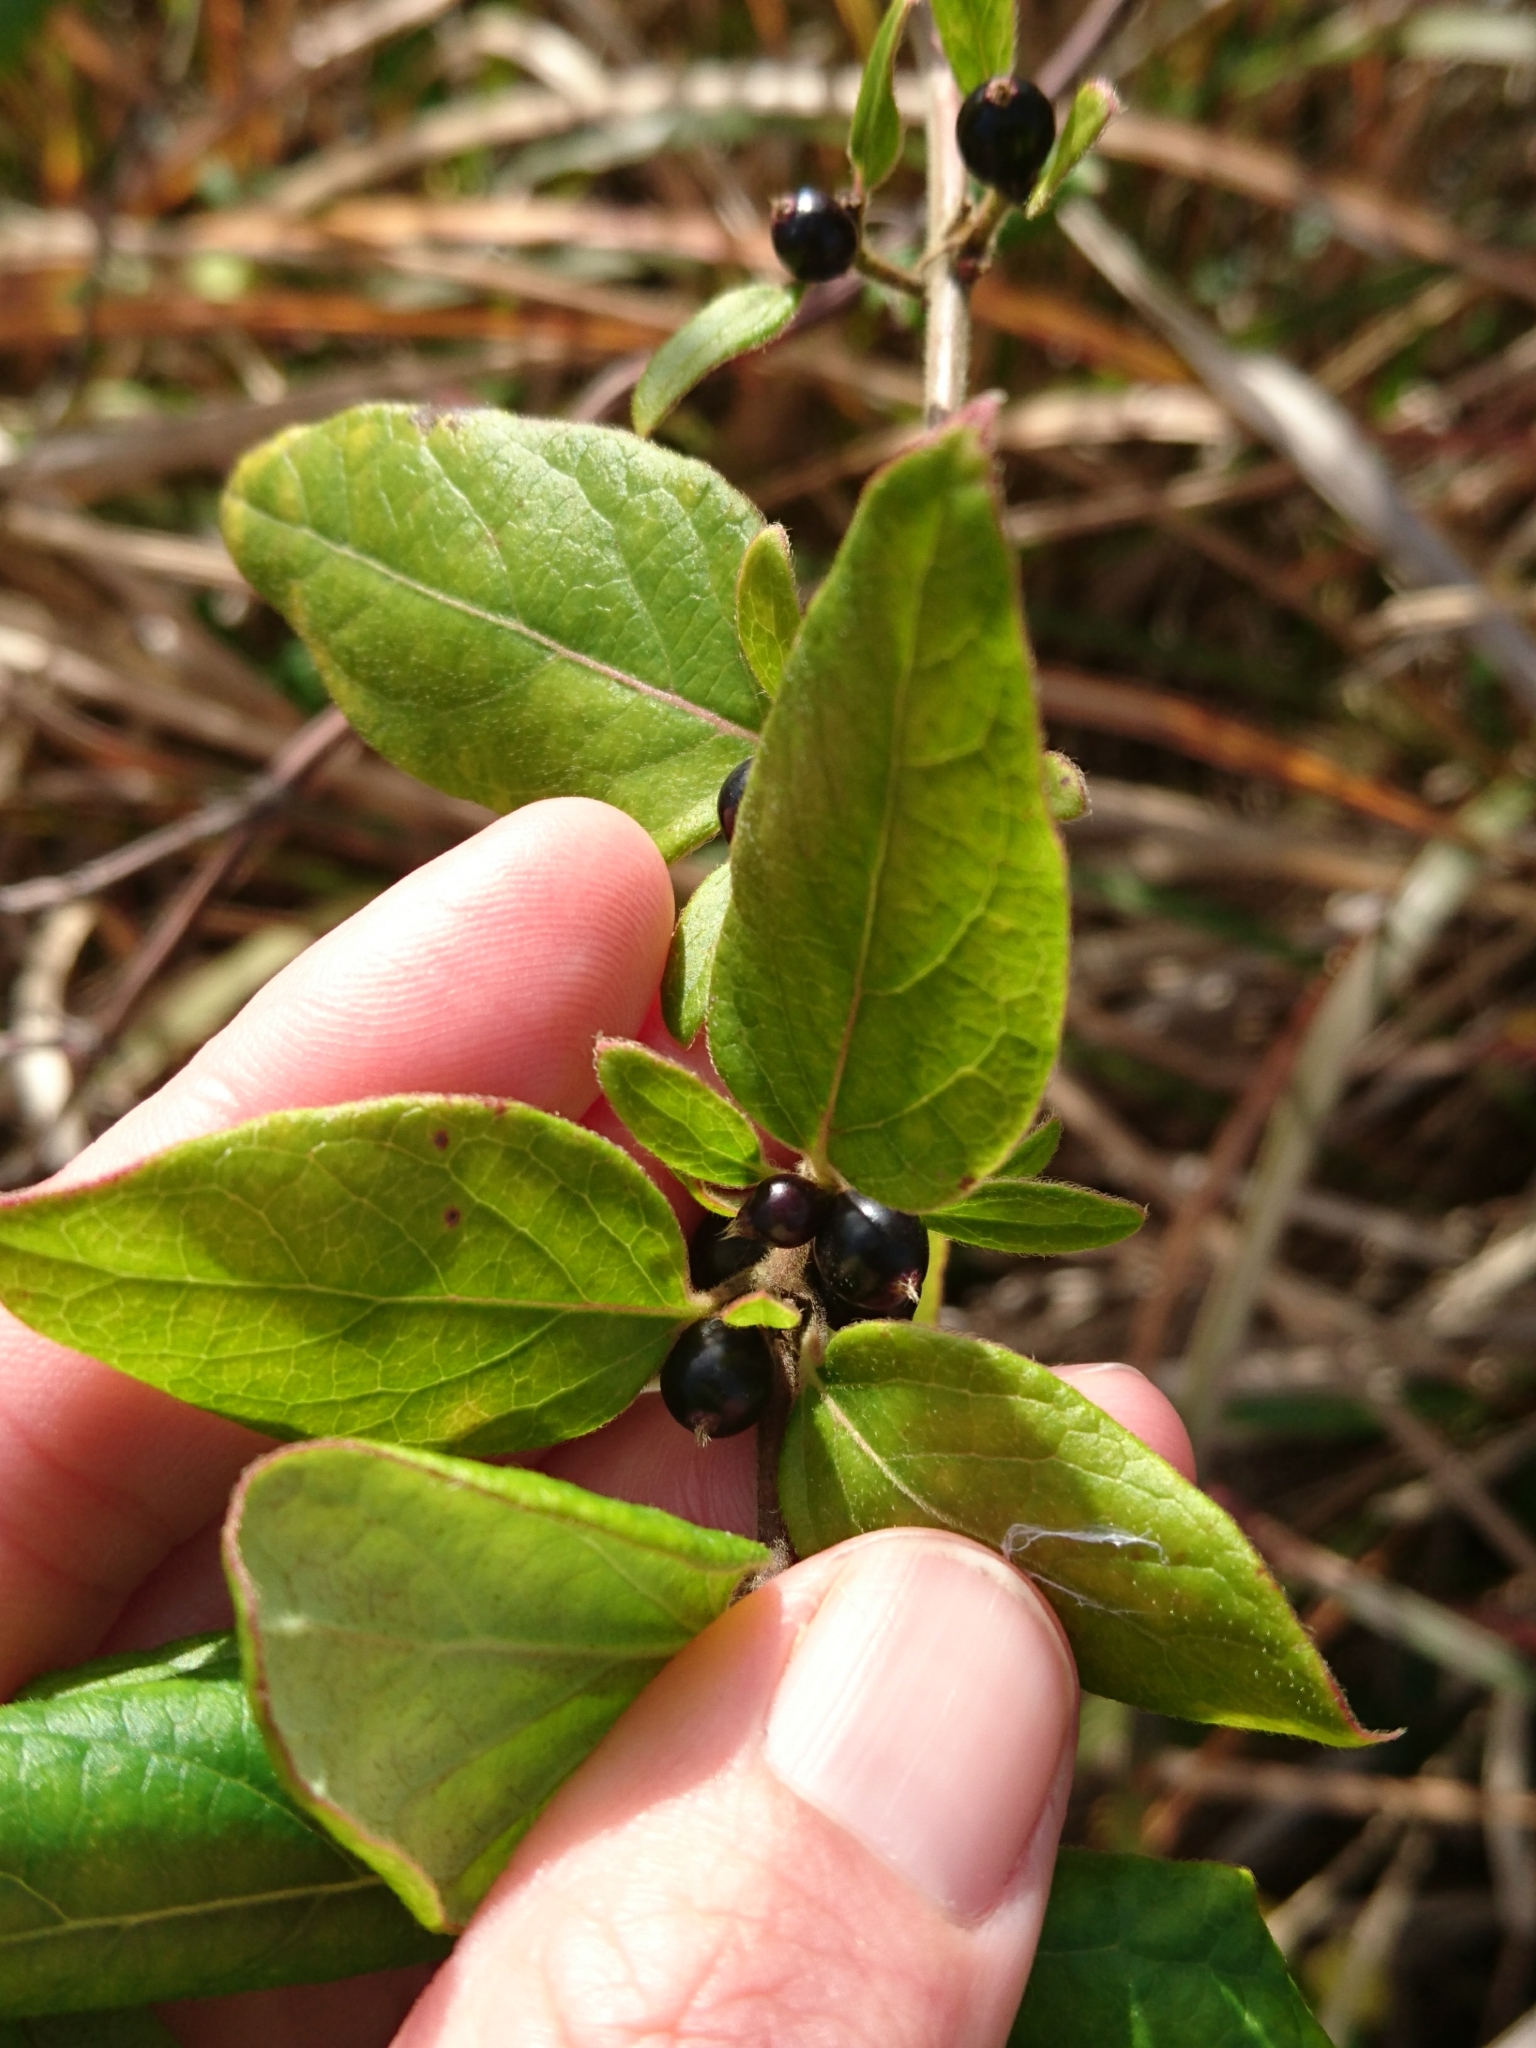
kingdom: Plantae
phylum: Tracheophyta
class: Magnoliopsida
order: Dipsacales
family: Caprifoliaceae
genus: Lonicera
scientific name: Lonicera japonica
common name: Japanese honeysuckle
